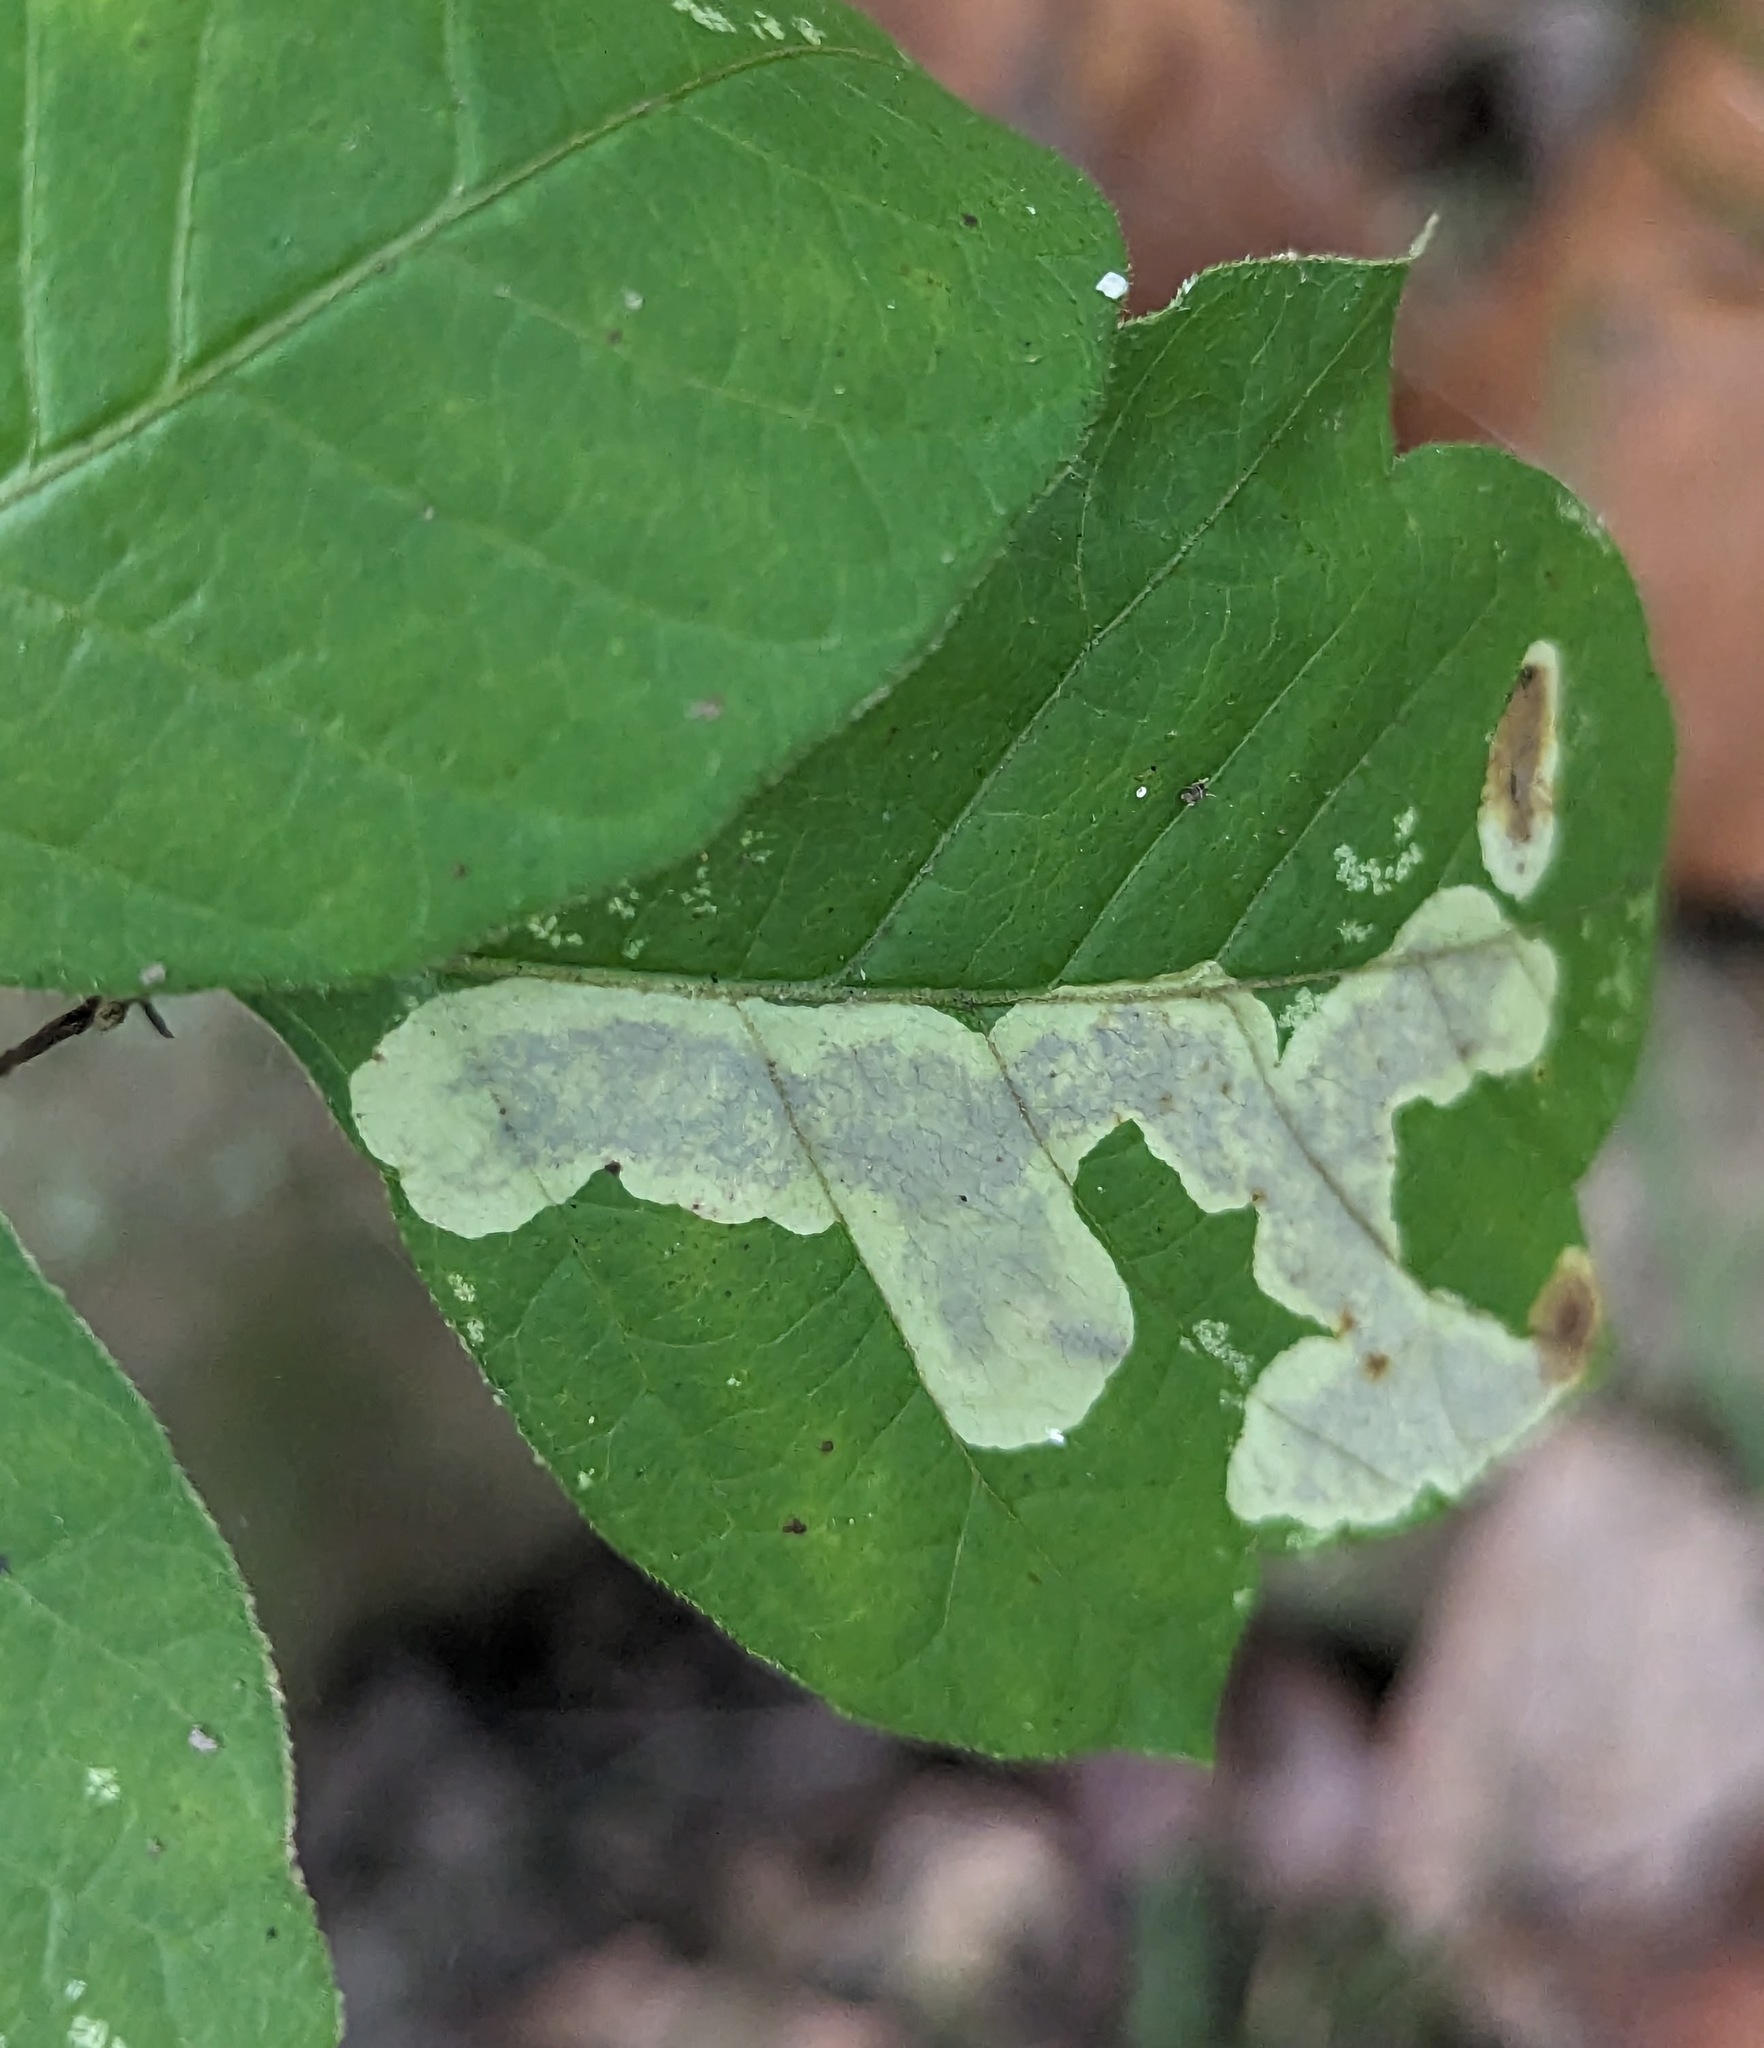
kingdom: Animalia
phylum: Arthropoda
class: Insecta
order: Lepidoptera
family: Gracillariidae
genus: Cameraria
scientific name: Cameraria guttifinitella
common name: Poison ivy leaf-miner moth
